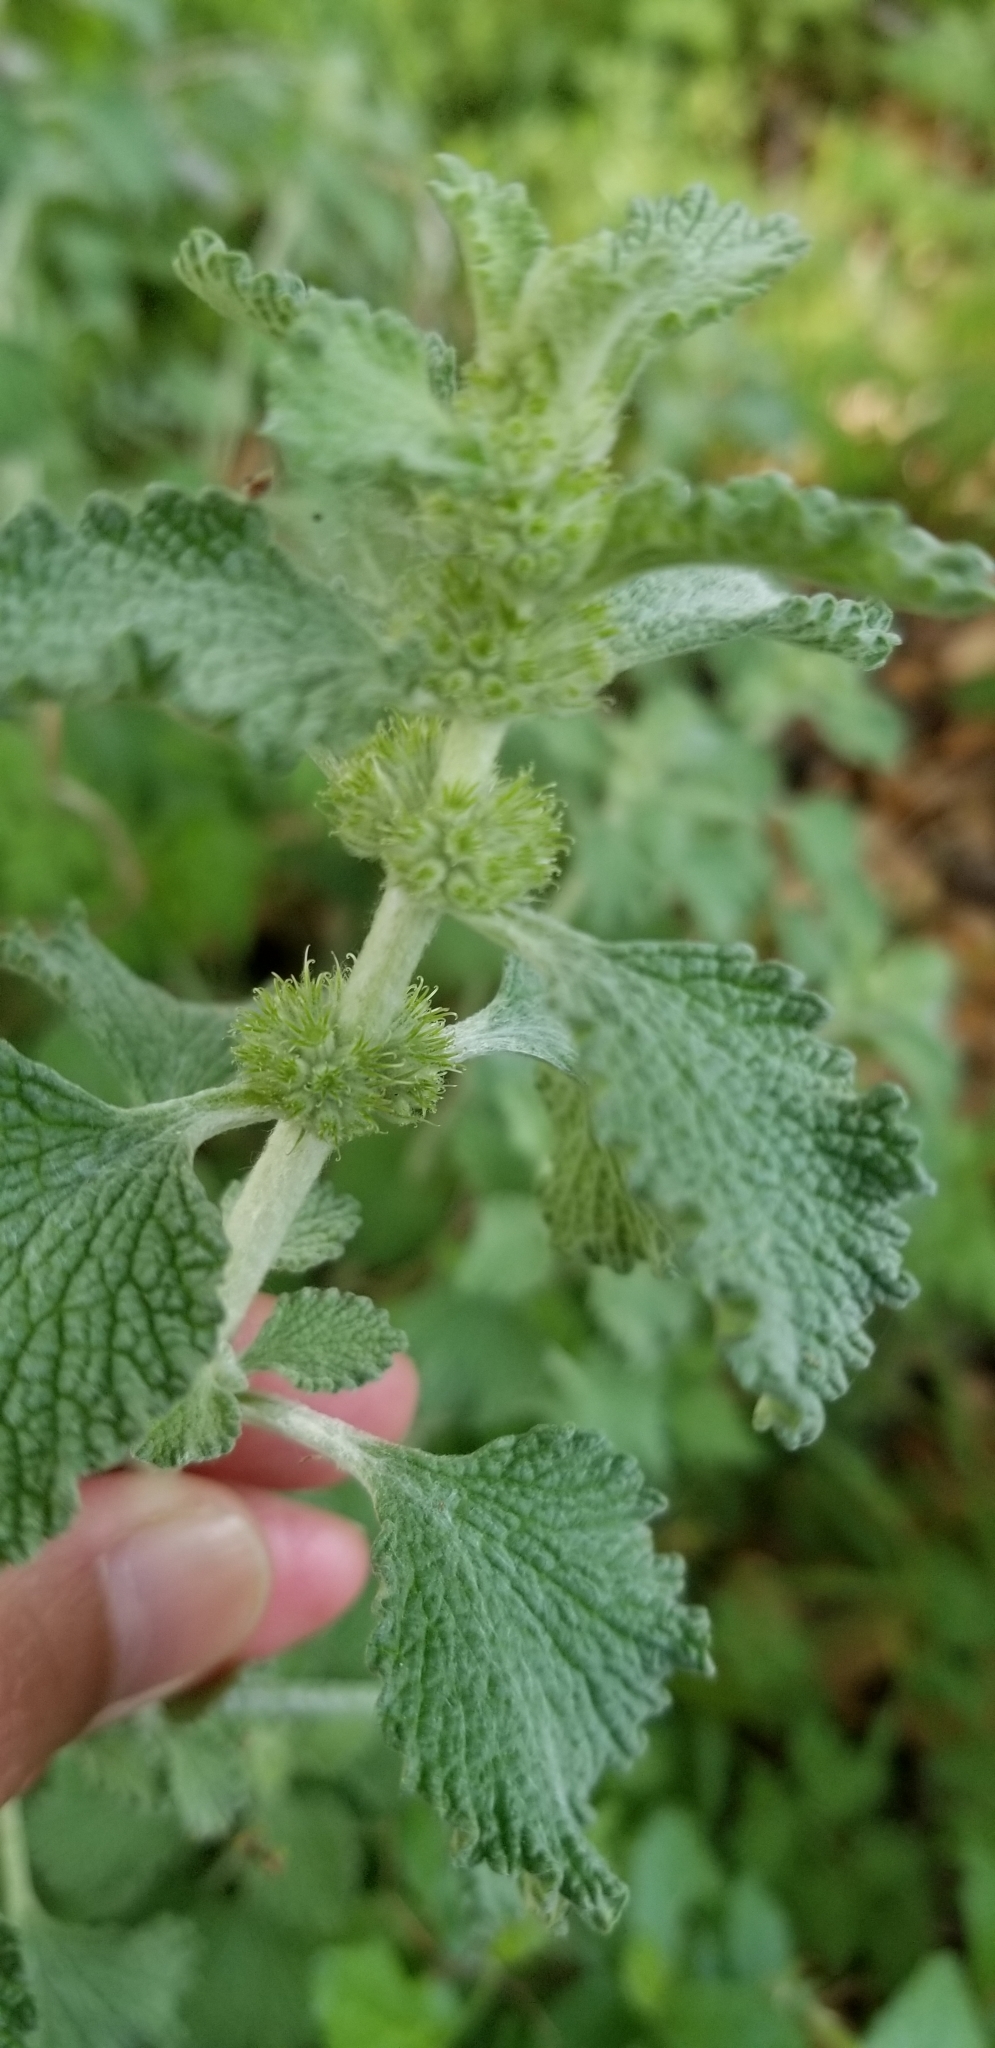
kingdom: Plantae
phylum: Tracheophyta
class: Magnoliopsida
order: Lamiales
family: Lamiaceae
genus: Marrubium
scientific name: Marrubium vulgare
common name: Horehound
